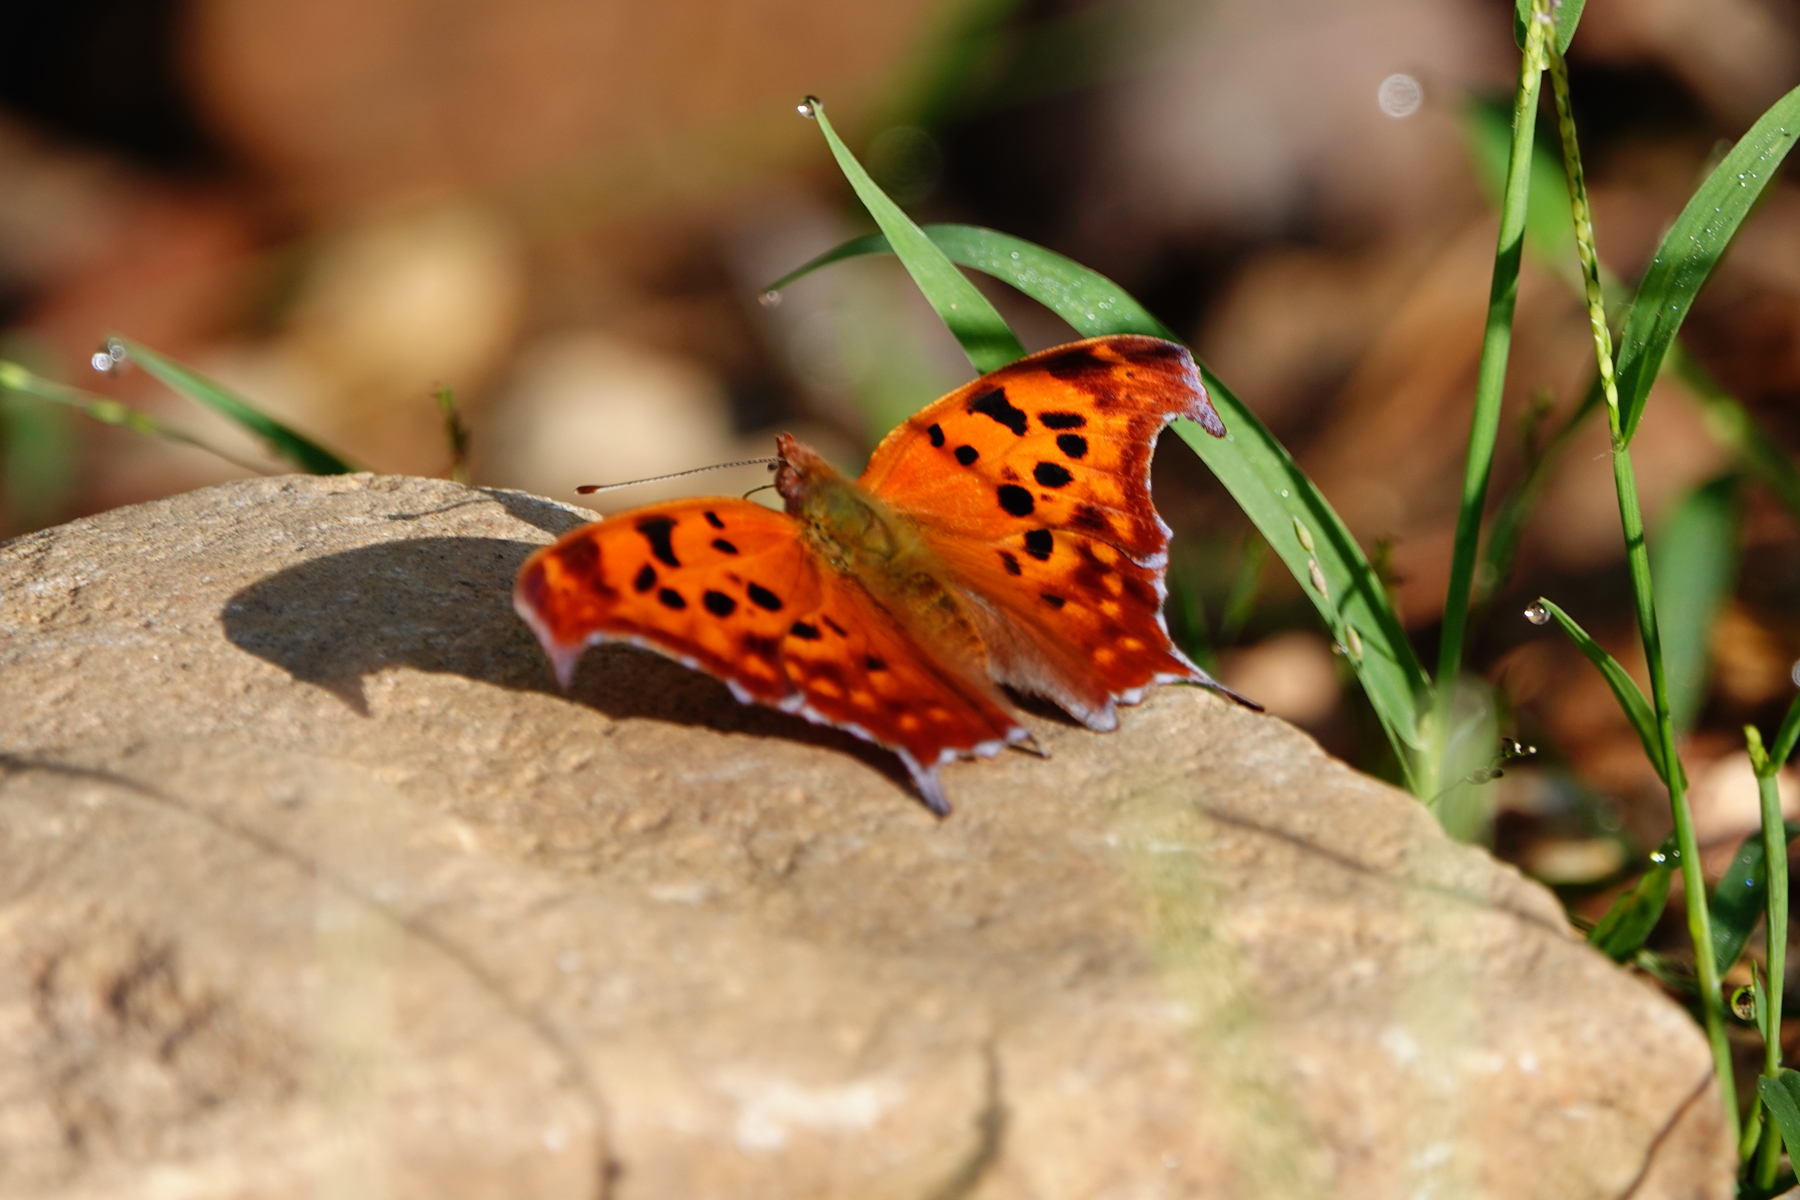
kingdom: Animalia
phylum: Arthropoda
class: Insecta
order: Lepidoptera
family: Nymphalidae
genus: Polygonia
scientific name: Polygonia interrogationis
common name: Question mark
